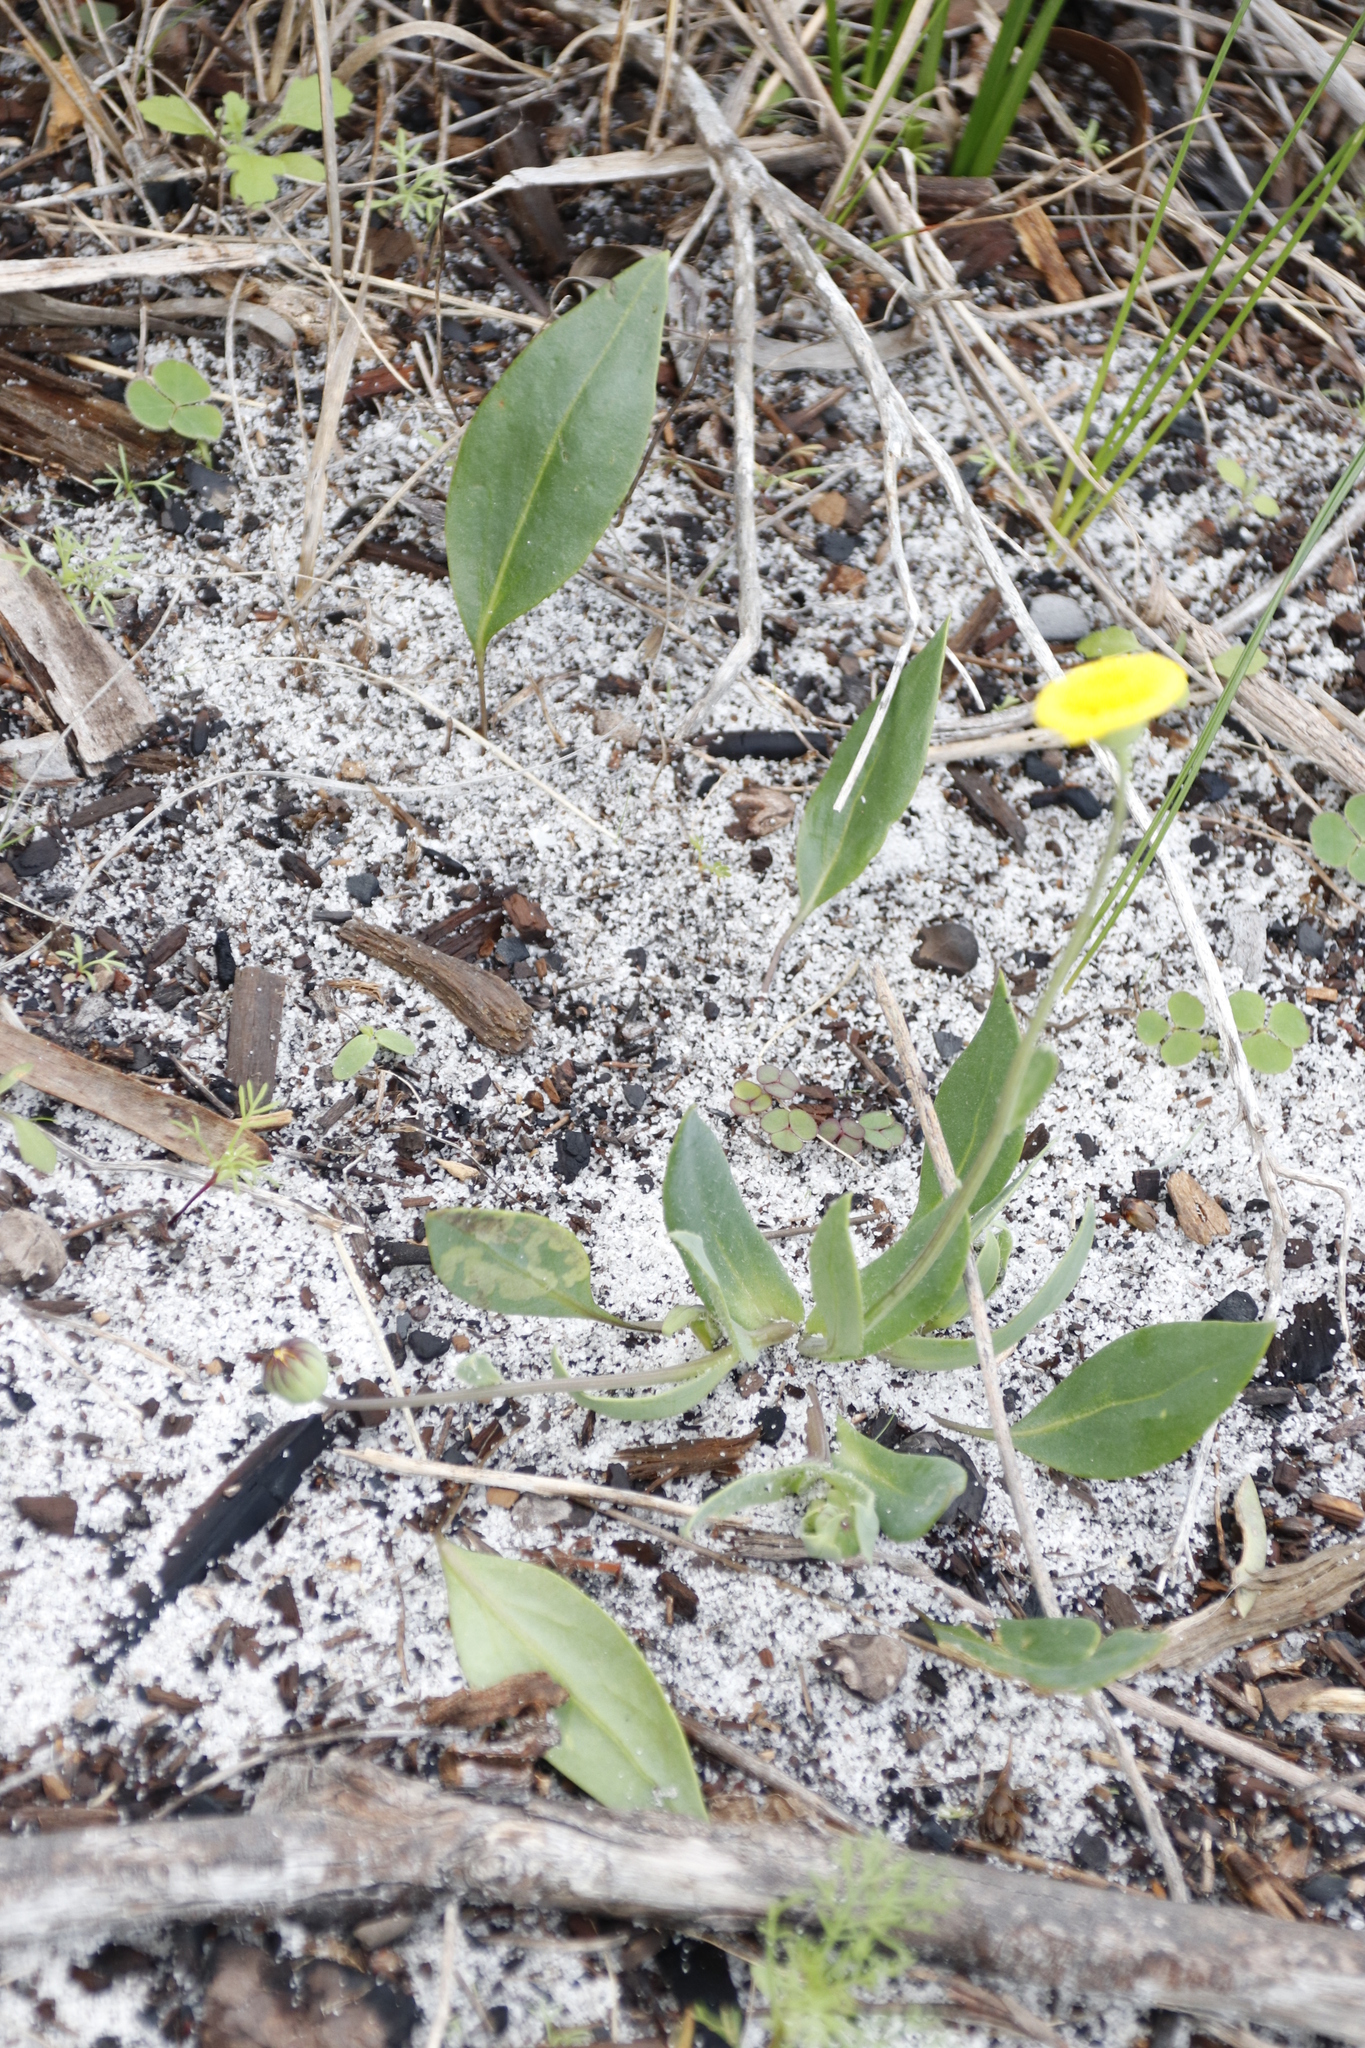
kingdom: Plantae
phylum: Tracheophyta
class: Magnoliopsida
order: Asterales
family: Asteraceae
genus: Othonna
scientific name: Othonna bulbosa
